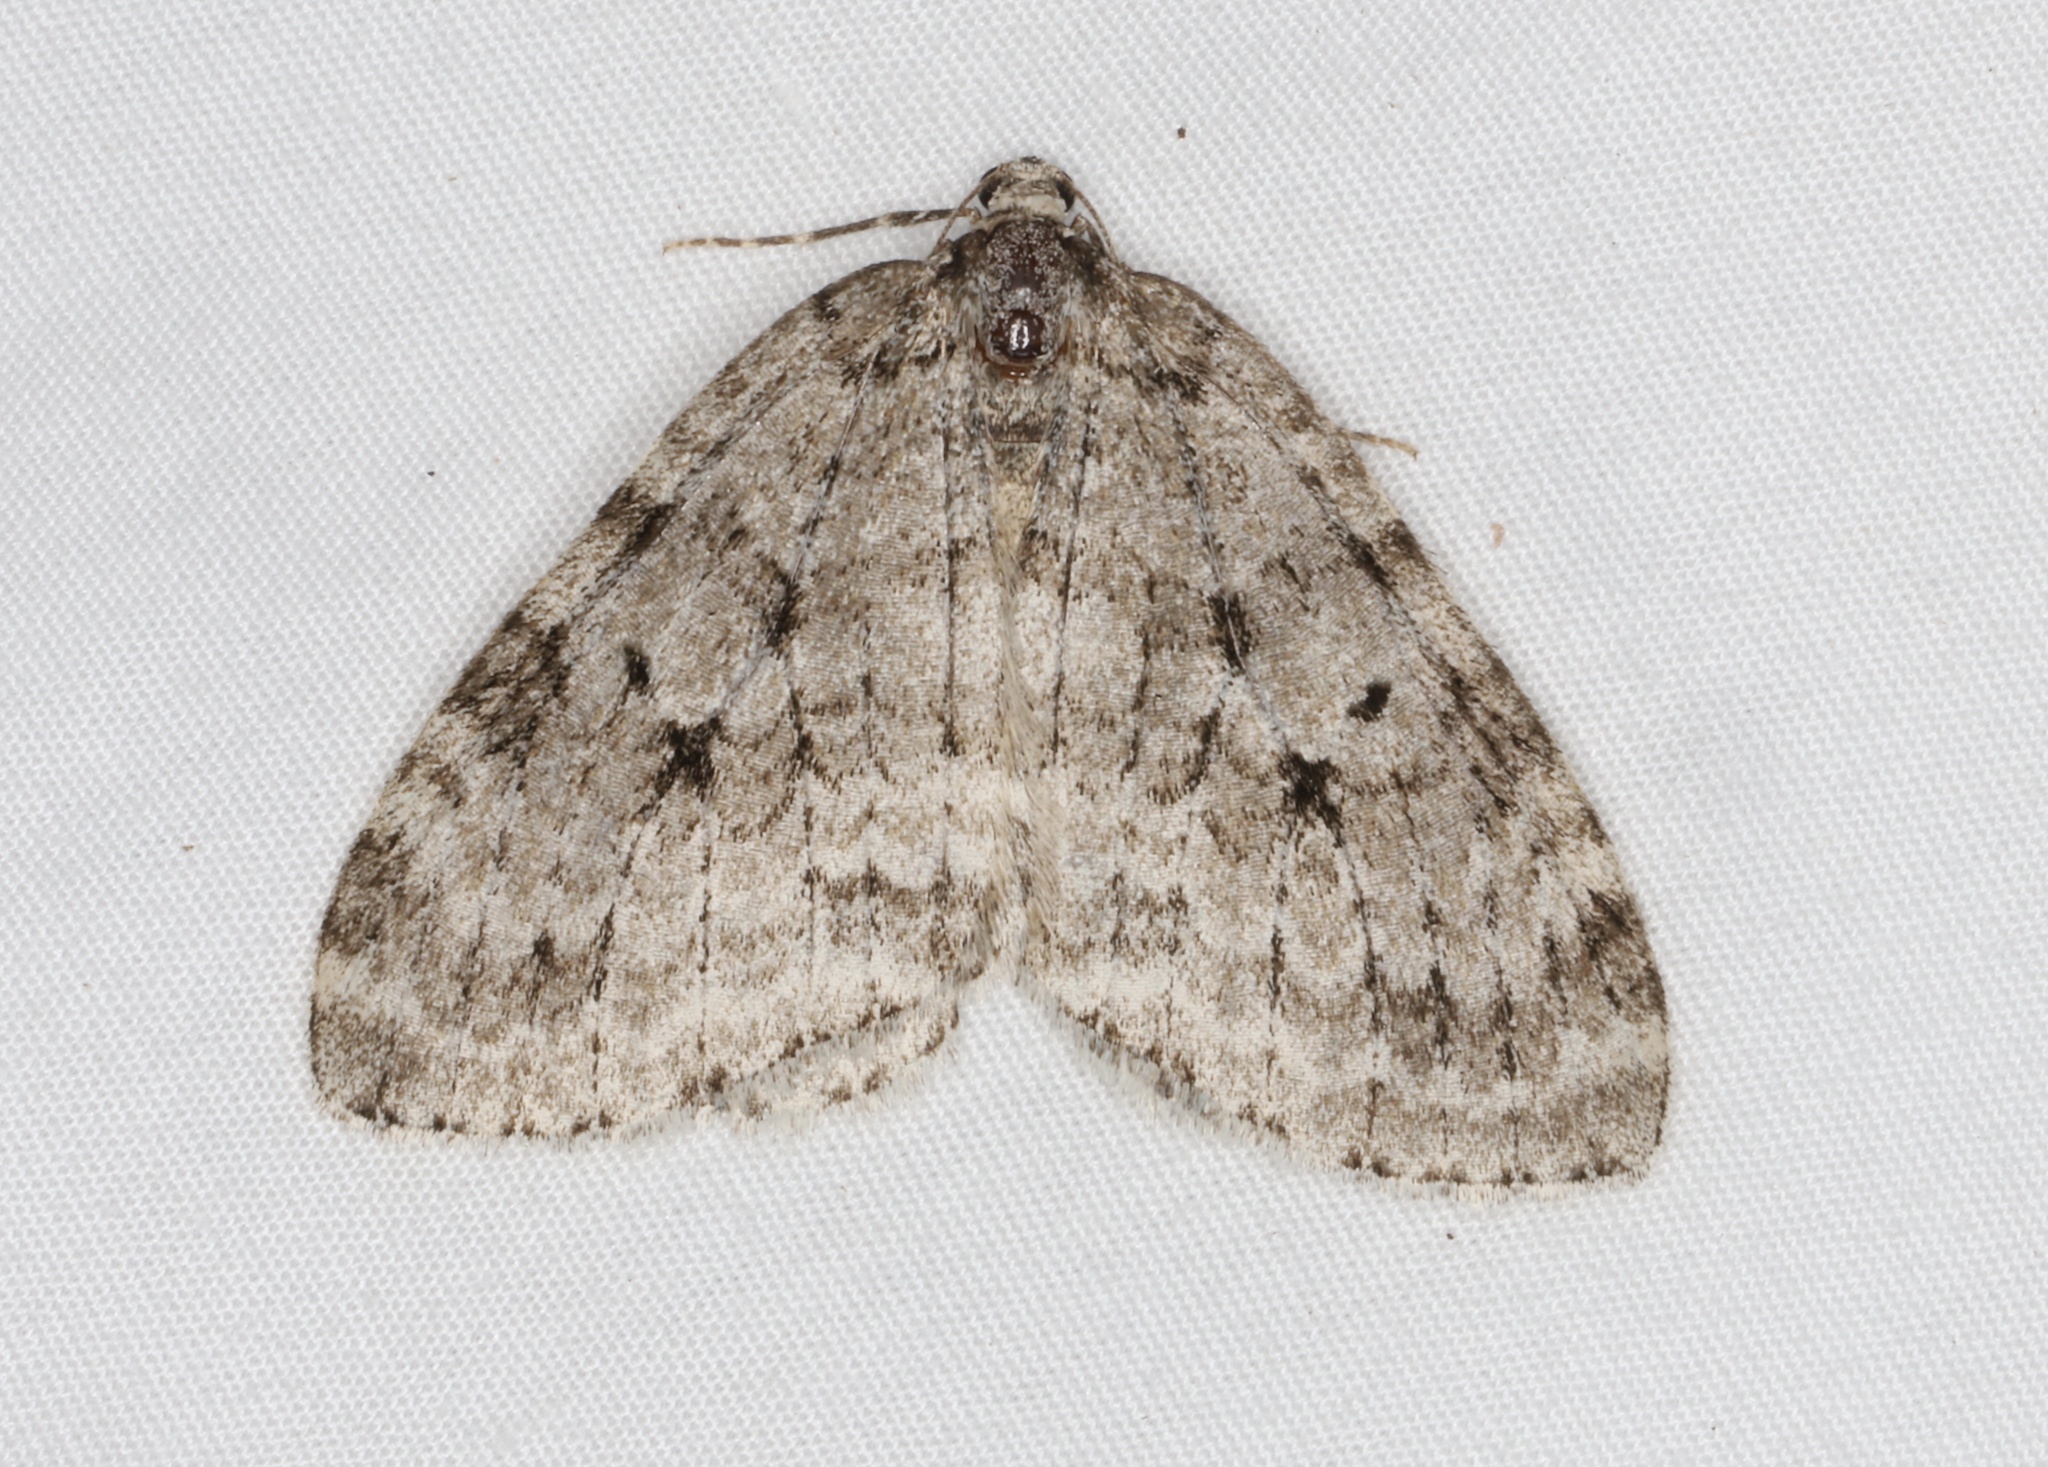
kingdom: Animalia
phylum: Arthropoda
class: Insecta
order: Lepidoptera
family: Geometridae
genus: Epirrita
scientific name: Epirrita autumnata
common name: Autumnal moth
